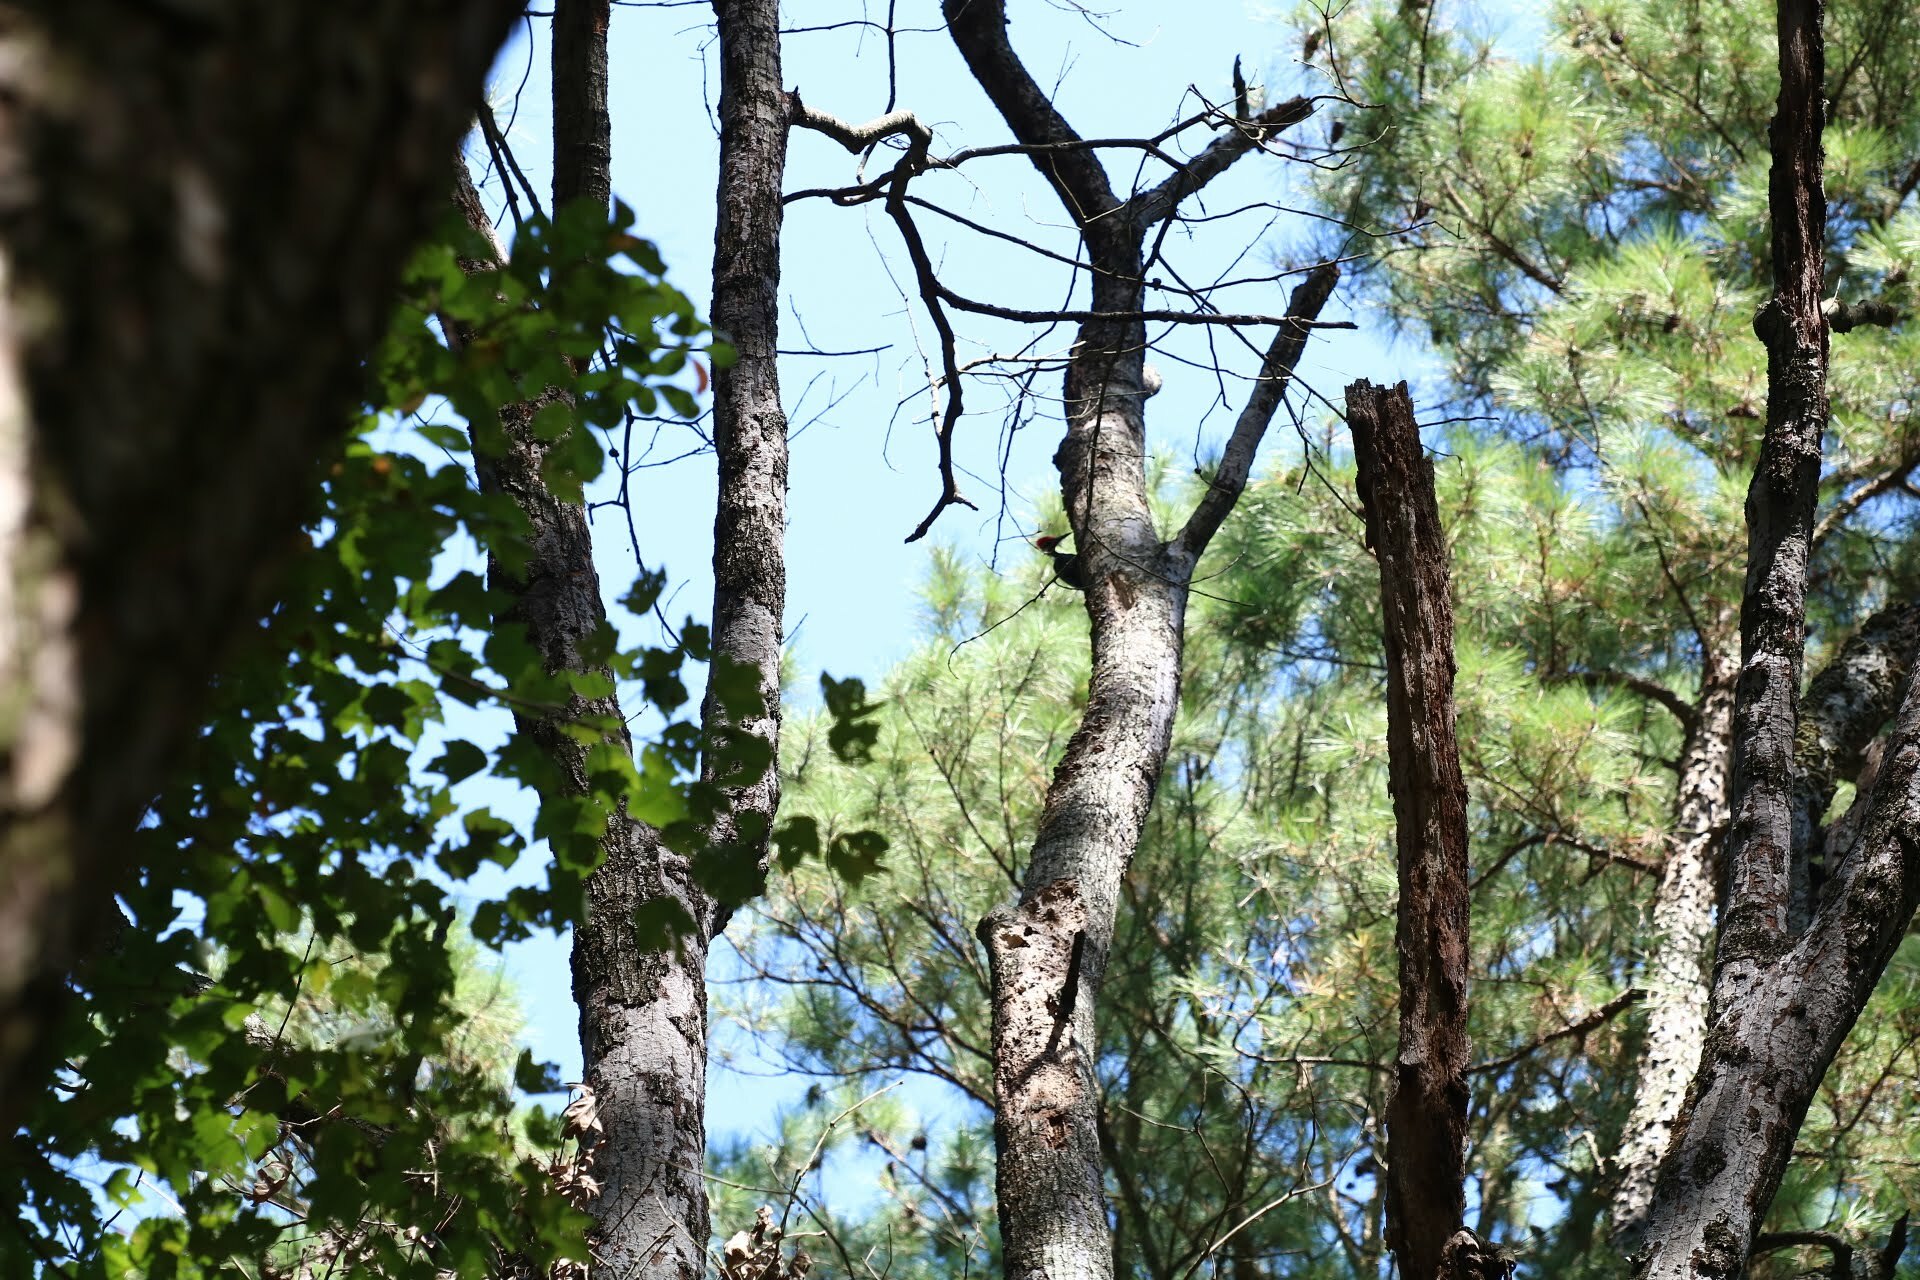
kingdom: Animalia
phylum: Chordata
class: Aves
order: Piciformes
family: Picidae
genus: Dryocopus
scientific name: Dryocopus pileatus
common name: Pileated woodpecker
